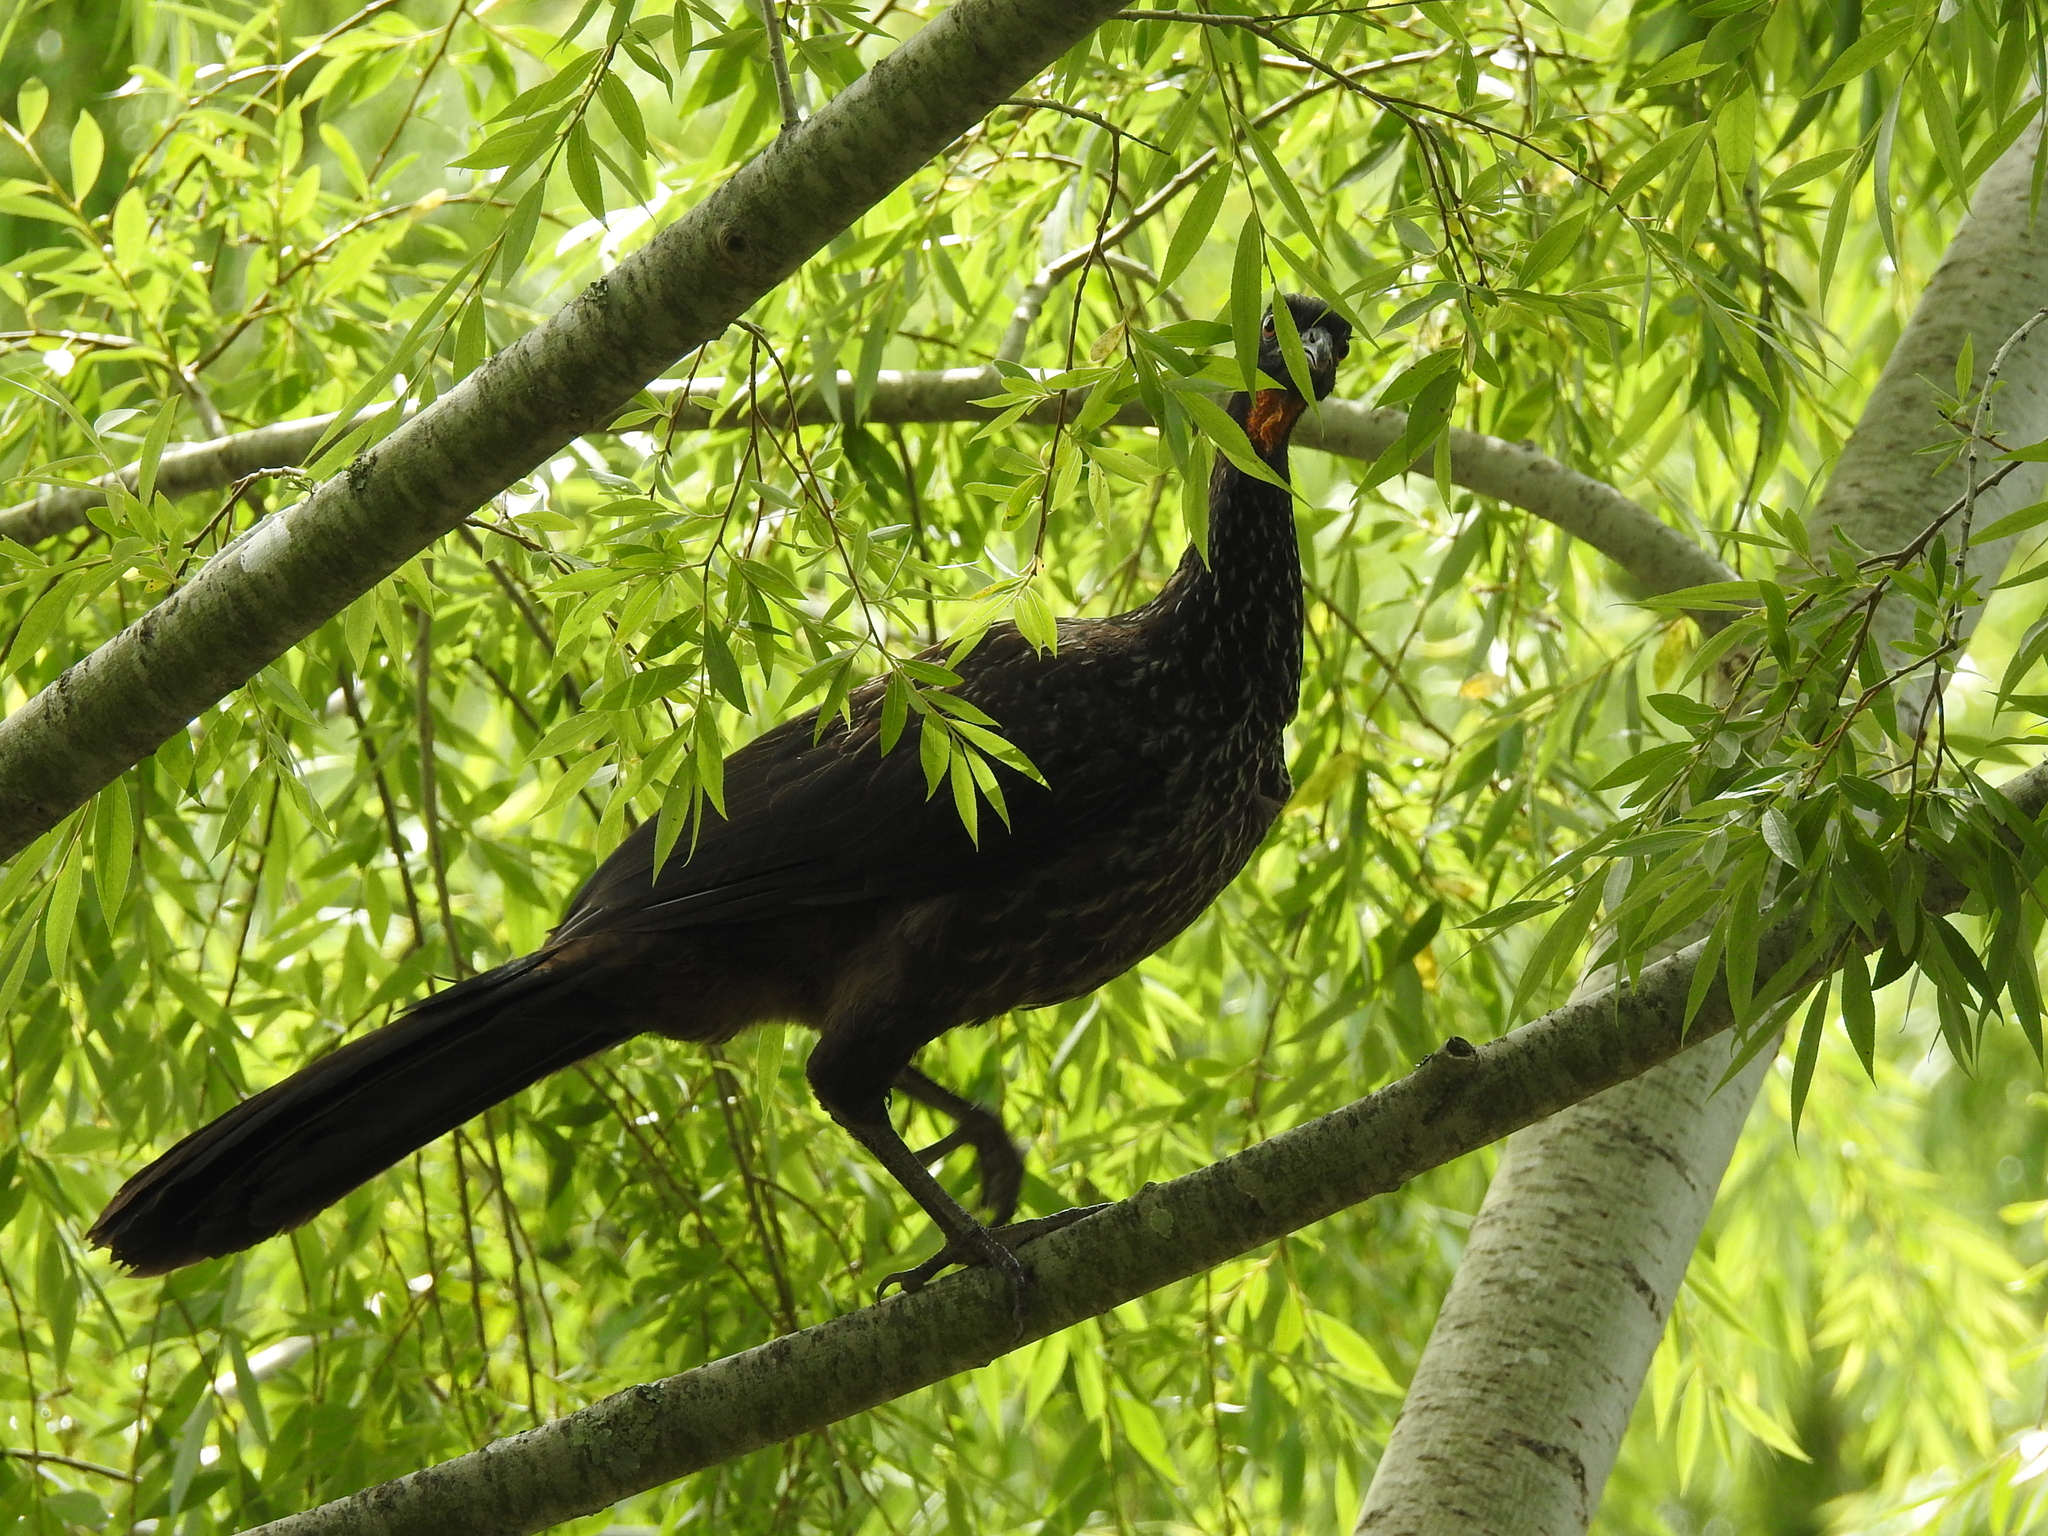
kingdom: Animalia
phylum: Chordata
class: Aves
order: Galliformes
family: Cracidae
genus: Penelope
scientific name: Penelope obscura
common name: Dusky-legged guan
